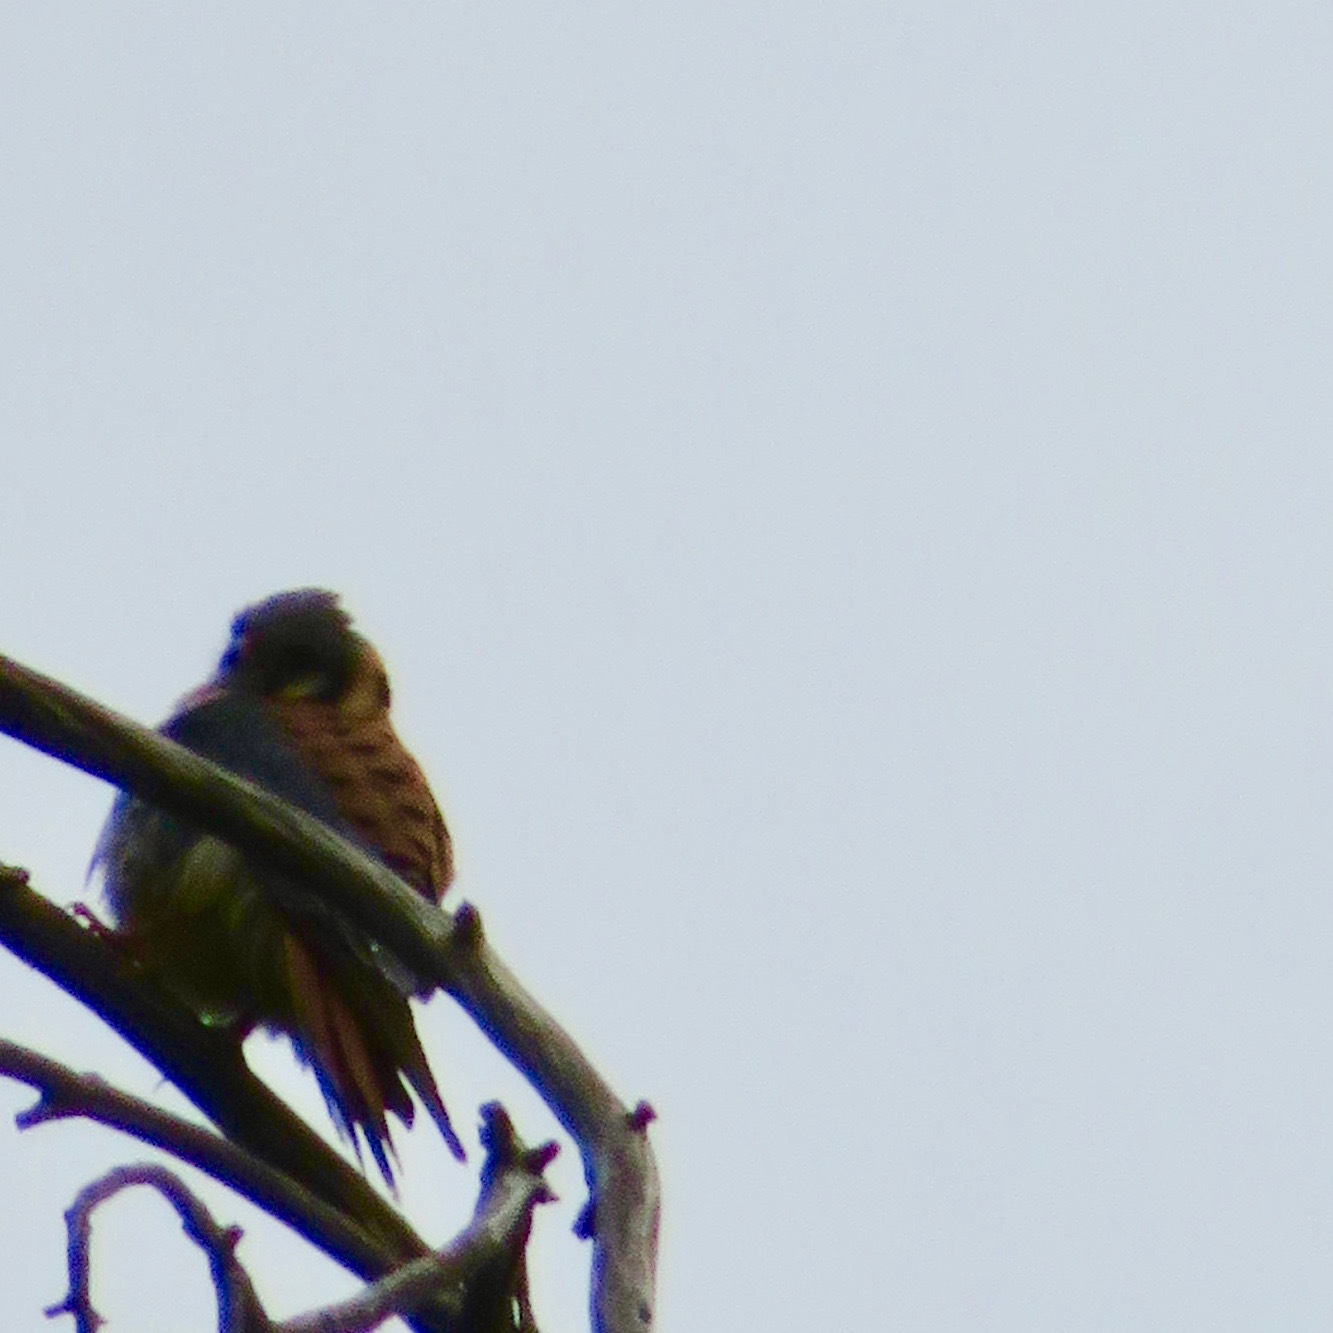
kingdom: Animalia
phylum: Chordata
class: Aves
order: Falconiformes
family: Falconidae
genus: Falco
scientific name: Falco sparverius
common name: American kestrel
